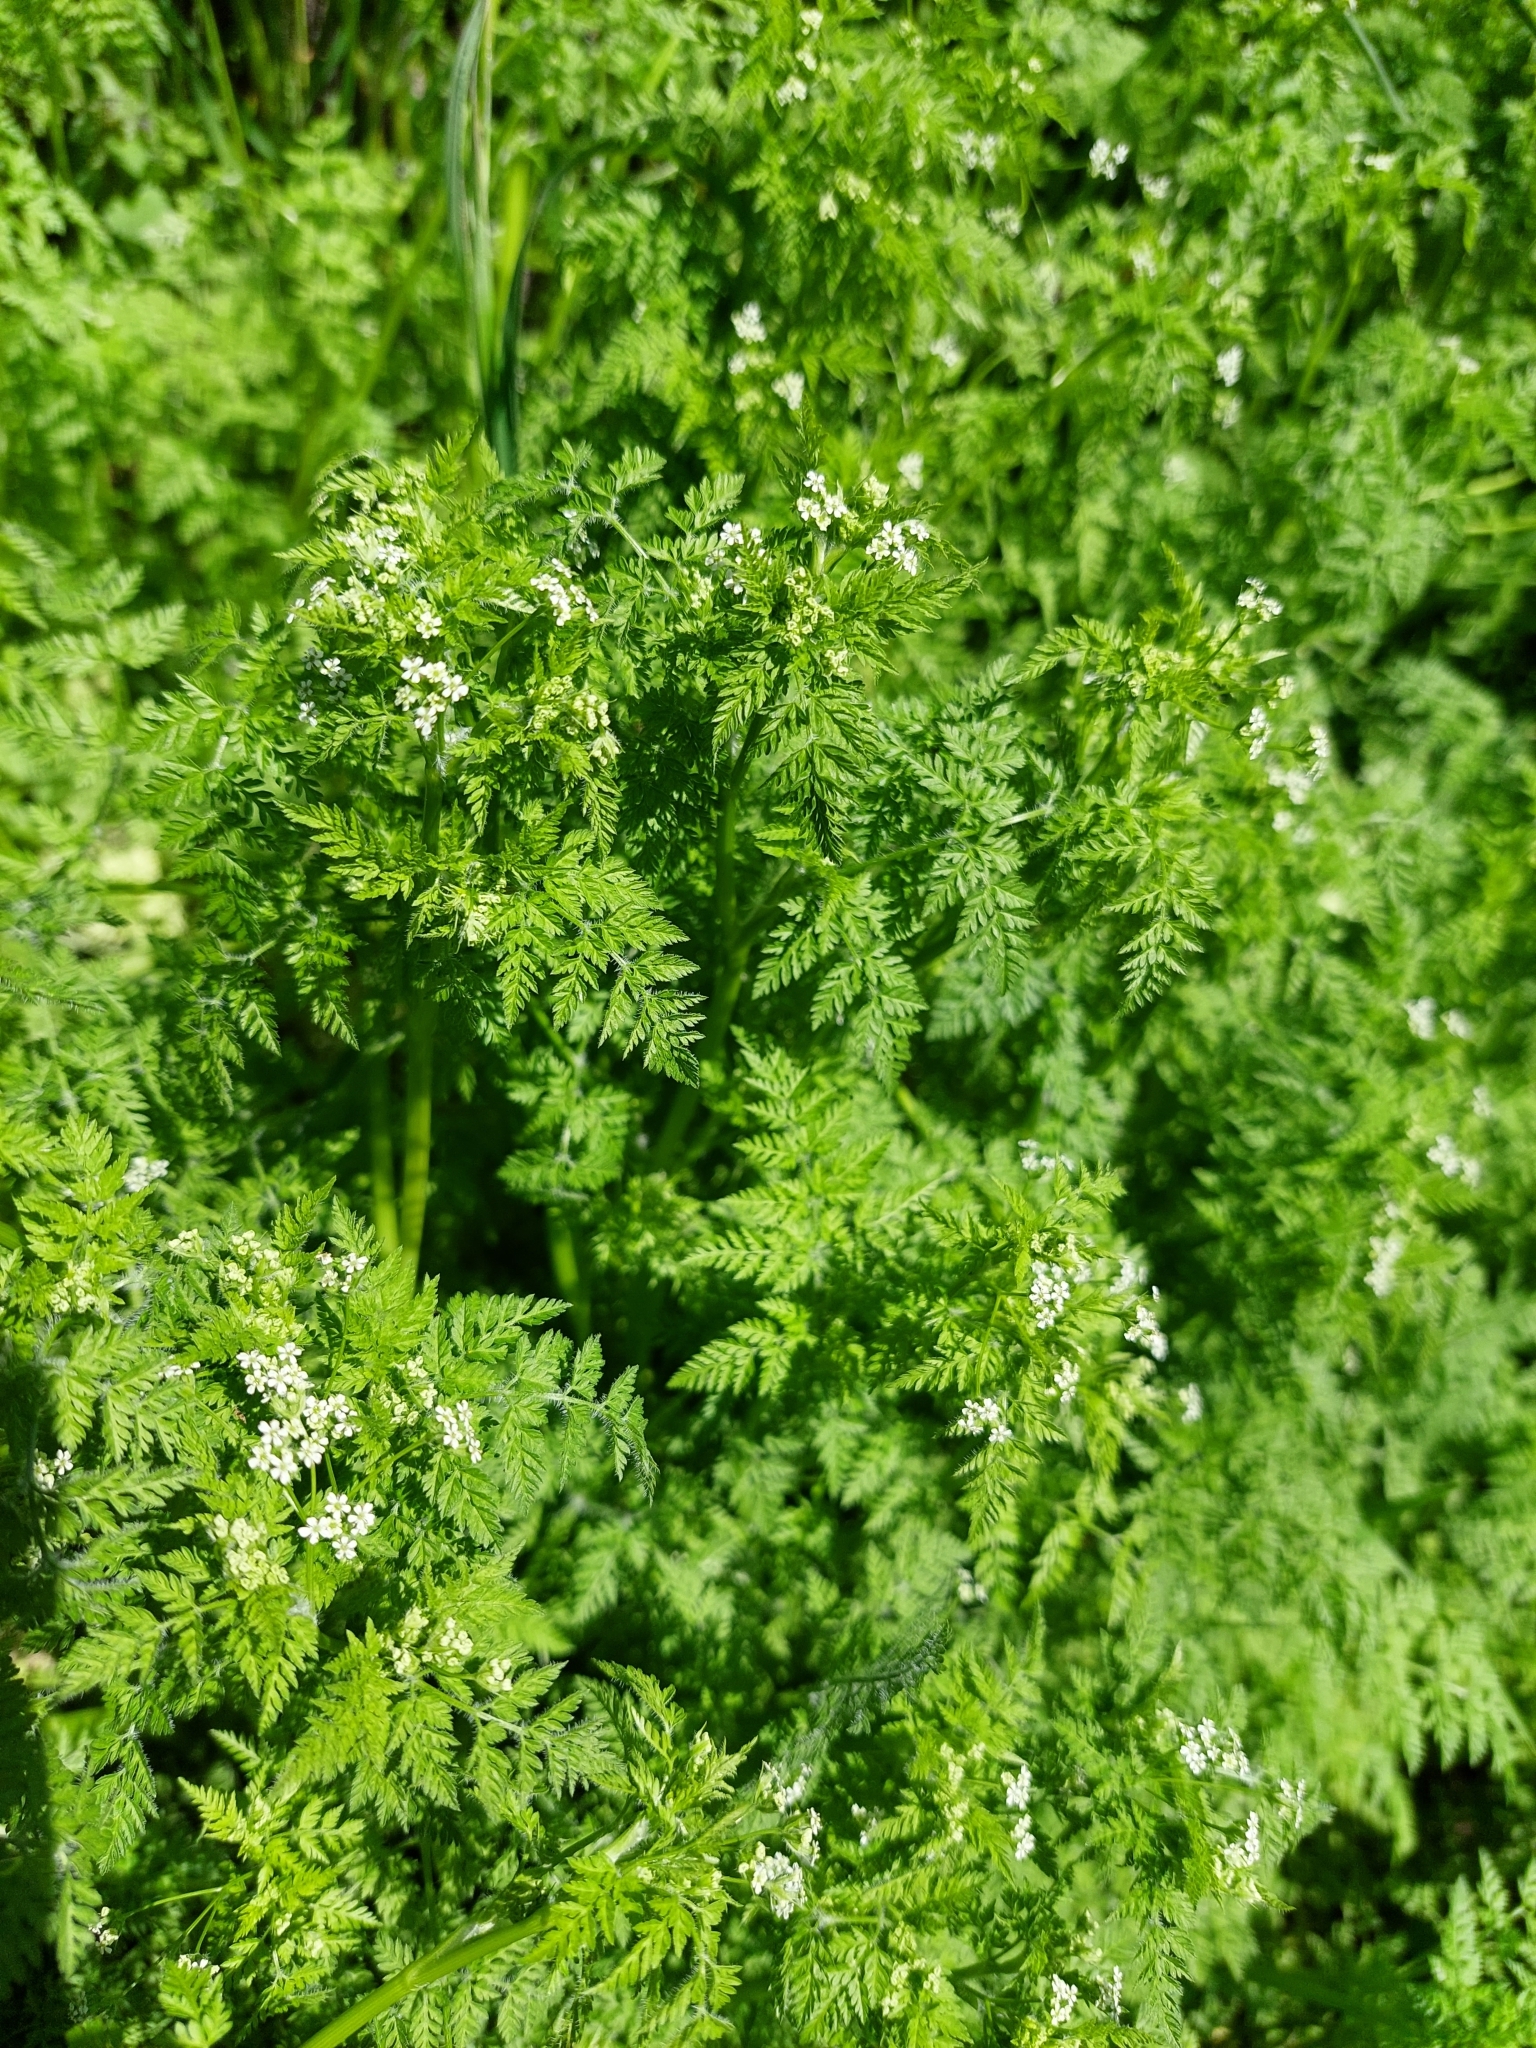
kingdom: Plantae
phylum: Tracheophyta
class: Magnoliopsida
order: Apiales
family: Apiaceae
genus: Anthriscus
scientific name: Anthriscus caucalis
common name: Bur chervil
